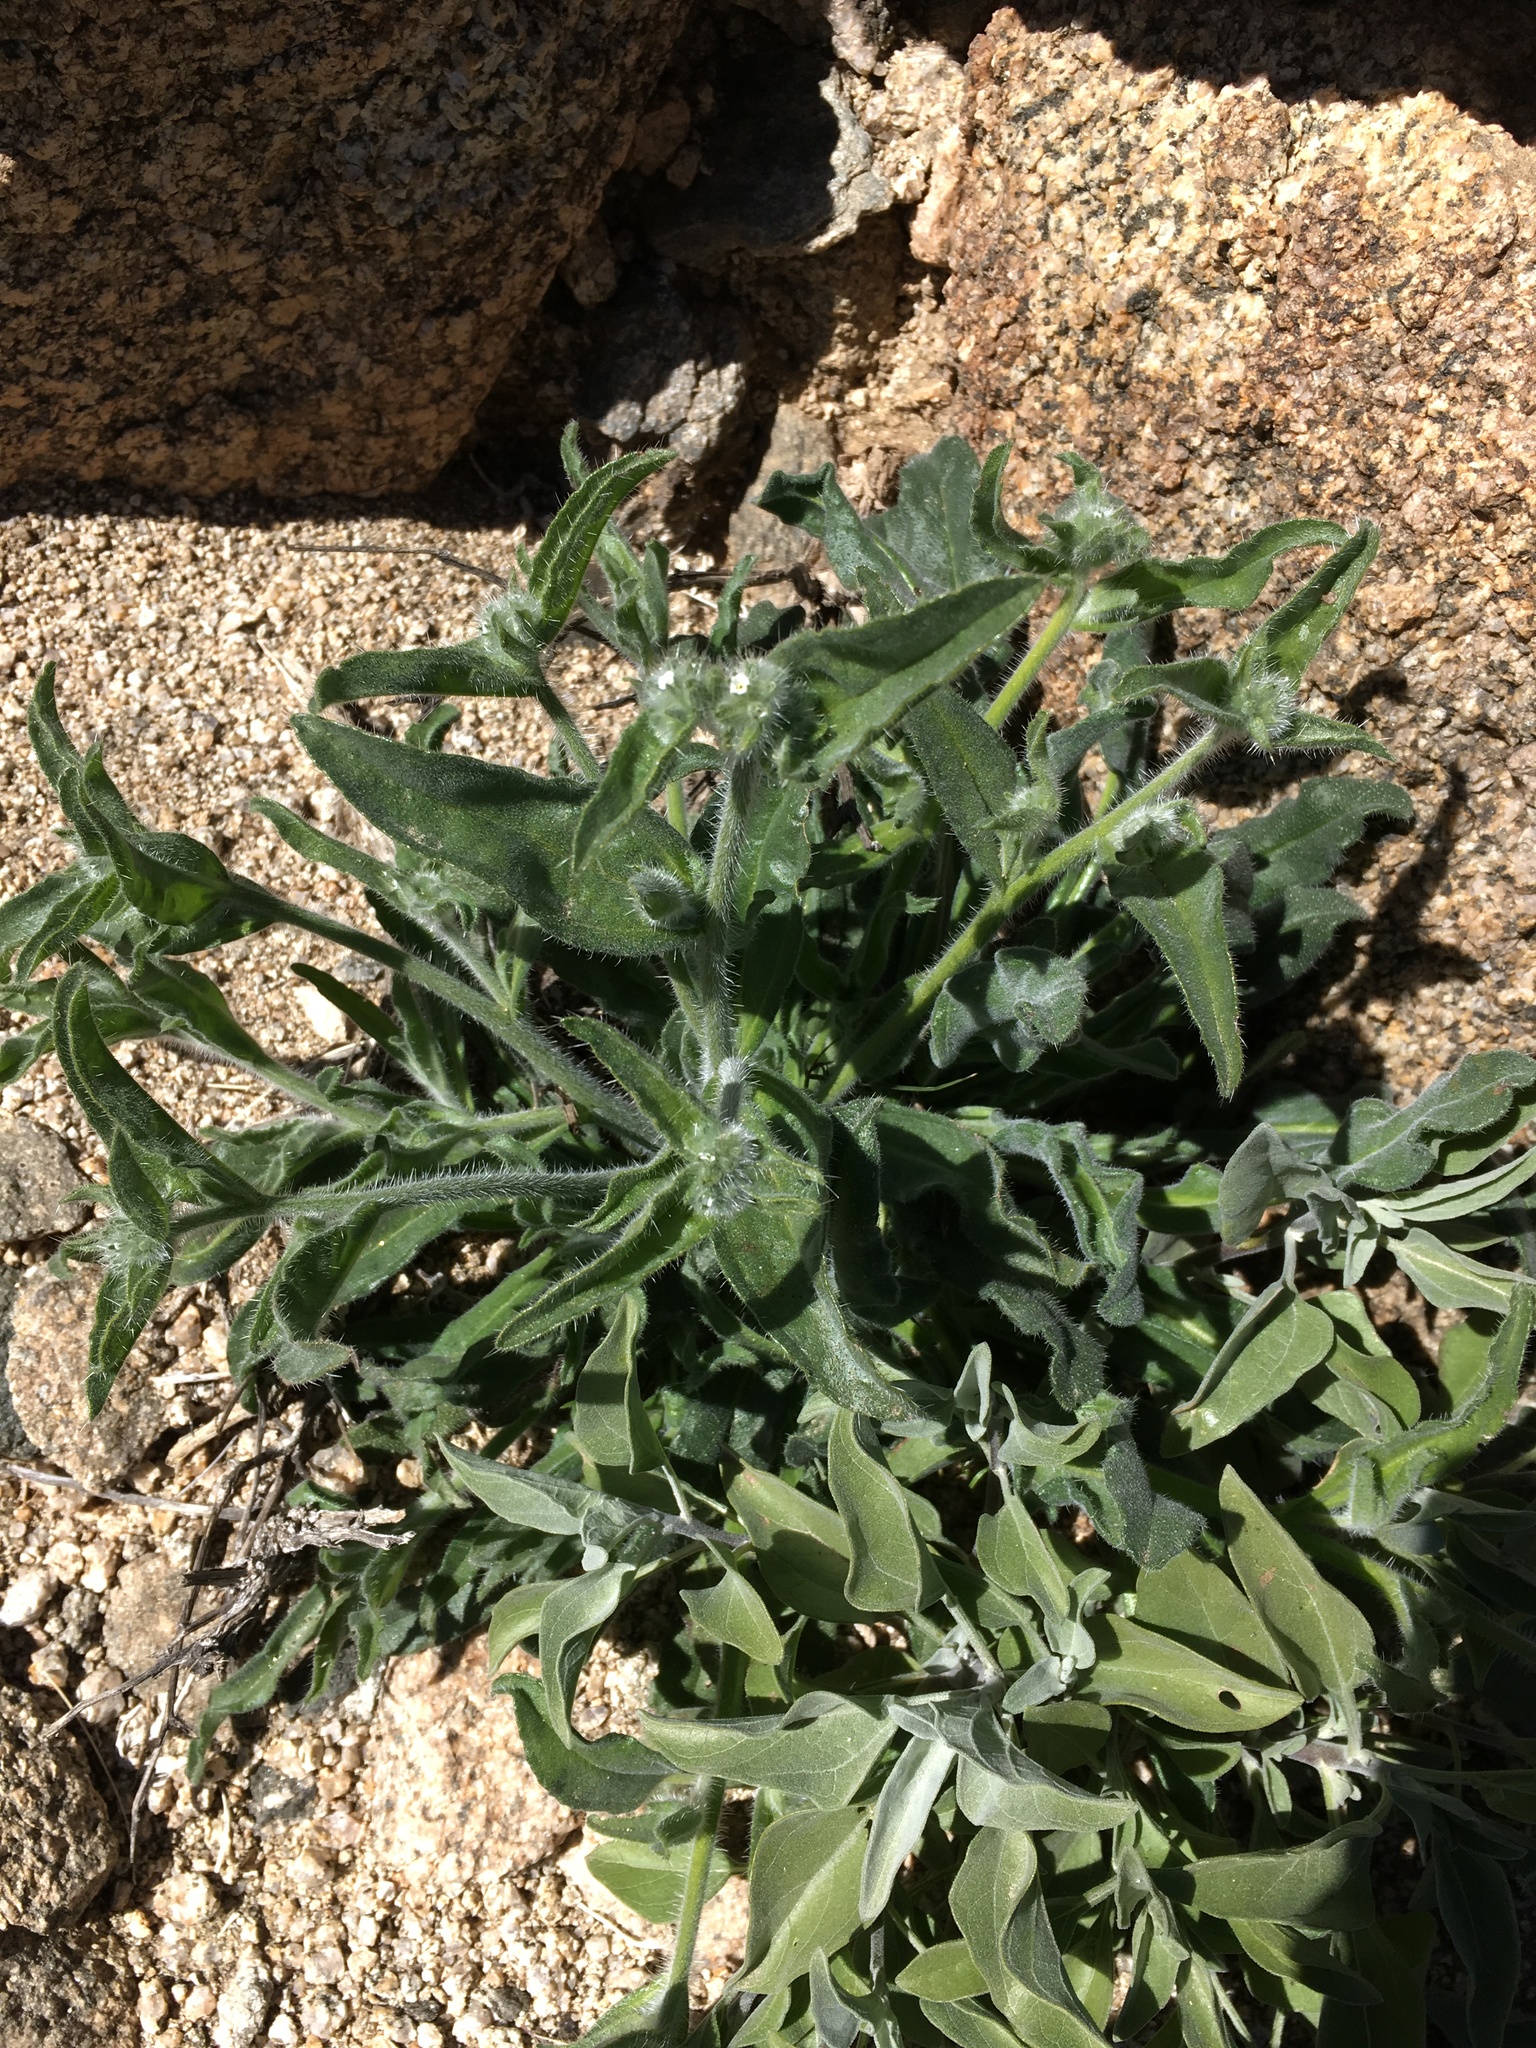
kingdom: Plantae
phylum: Tracheophyta
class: Magnoliopsida
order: Boraginales
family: Boraginaceae
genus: Simpsonanthus
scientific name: Simpsonanthus jonesii
